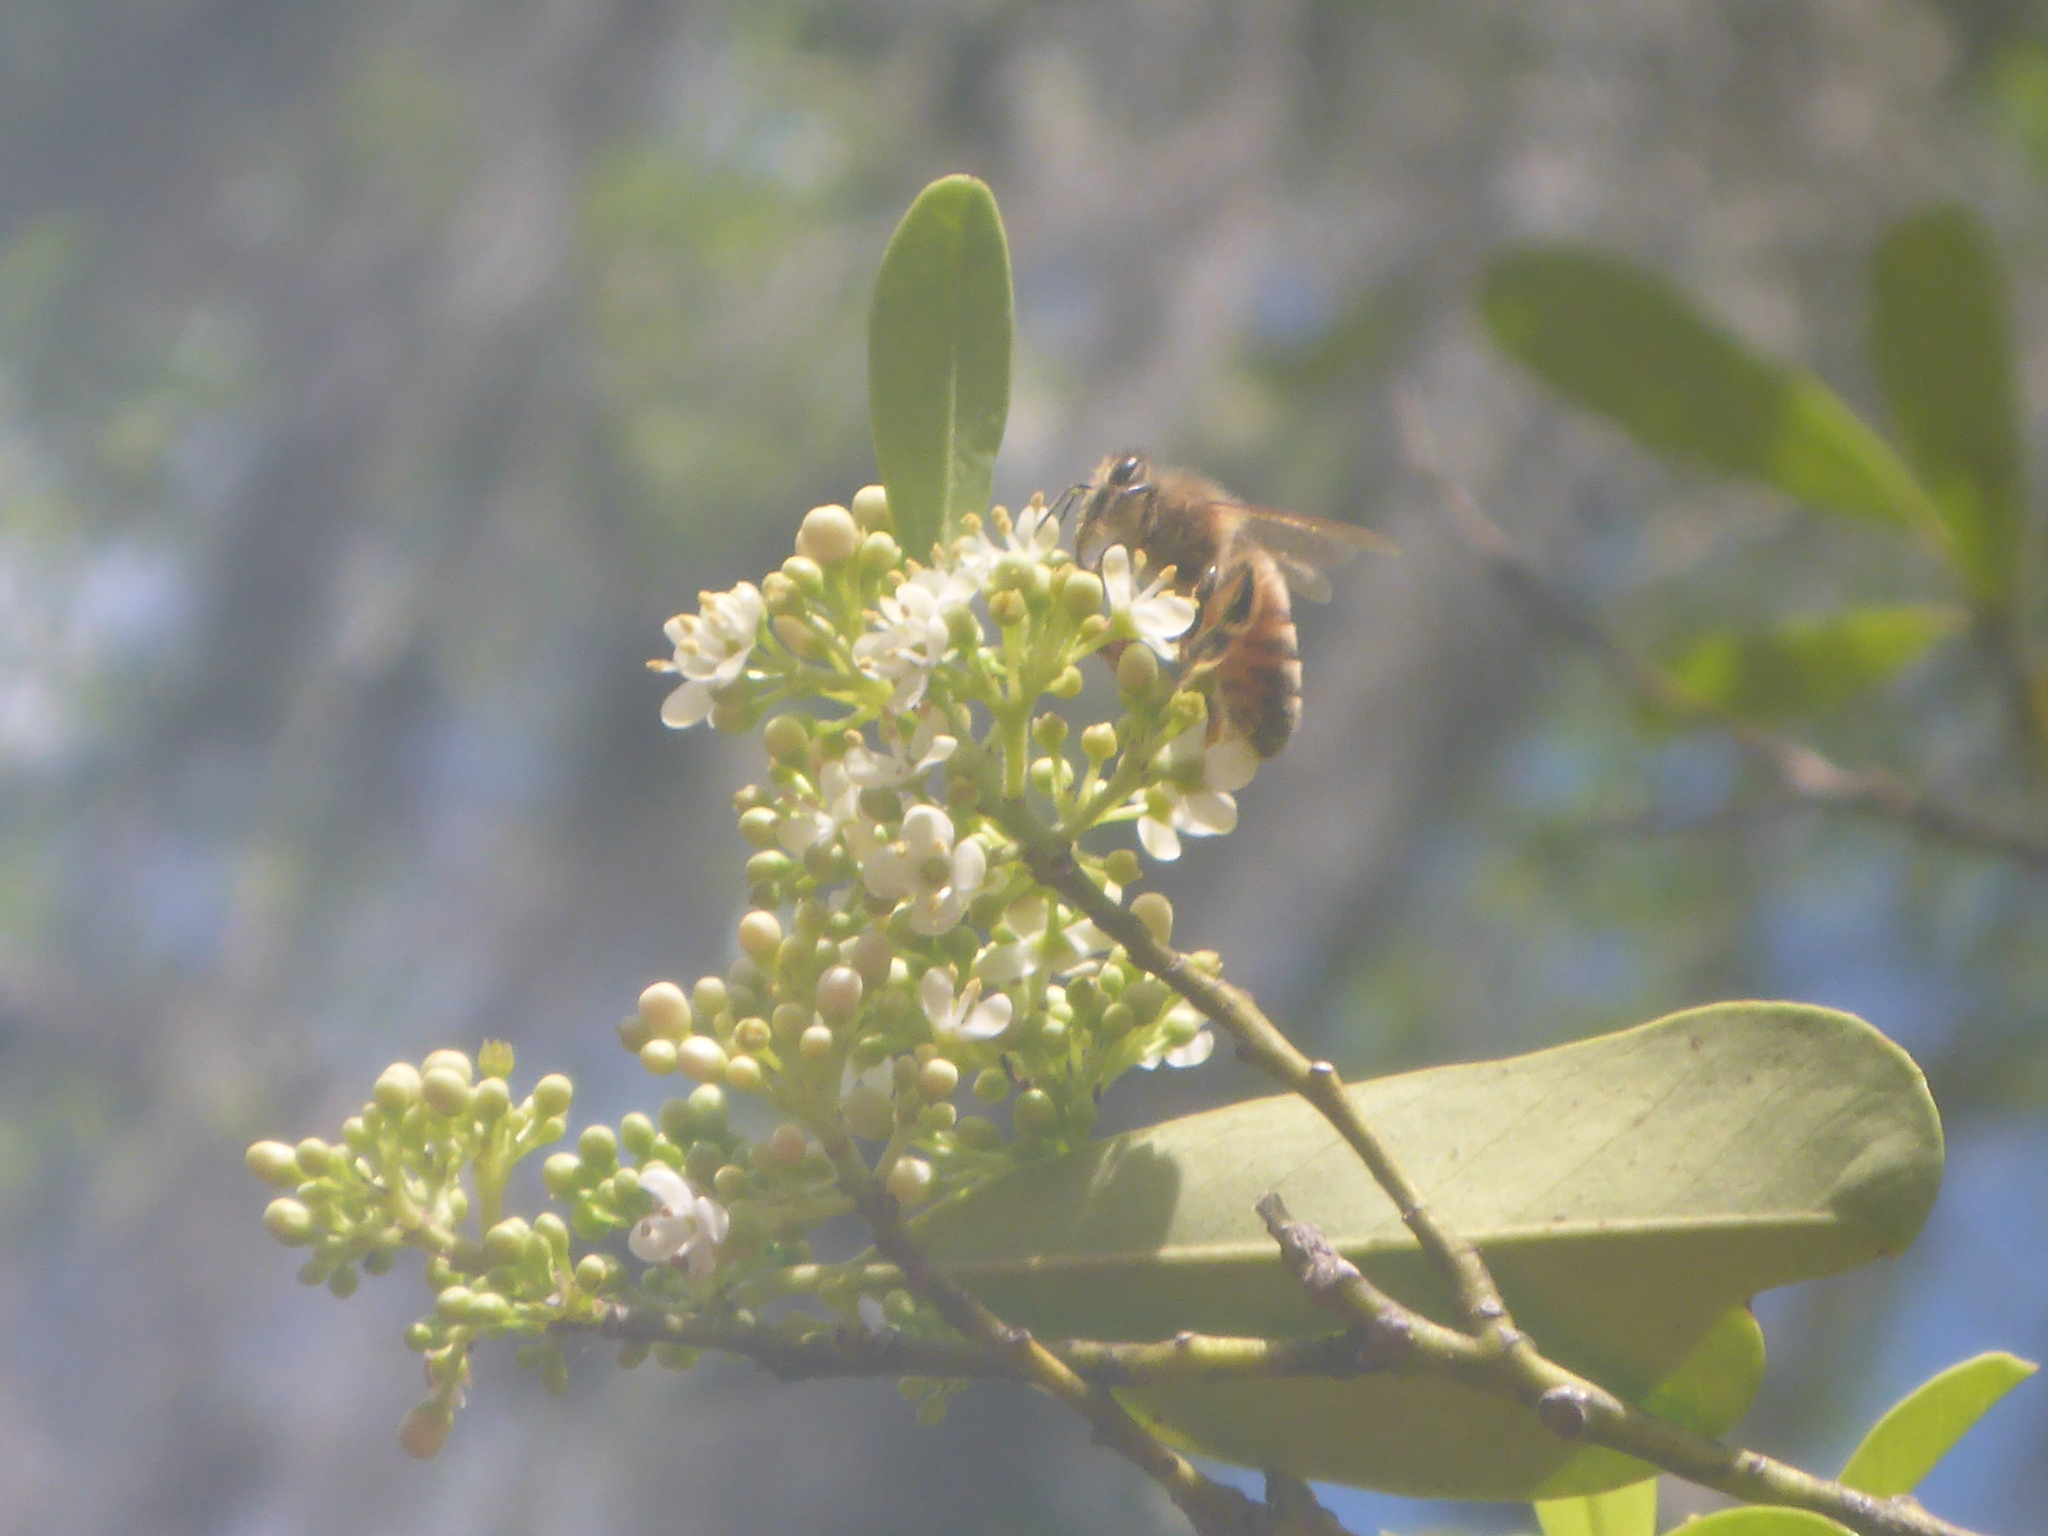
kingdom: Animalia
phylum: Arthropoda
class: Insecta
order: Hymenoptera
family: Apidae
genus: Apis
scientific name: Apis mellifera
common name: Honey bee
